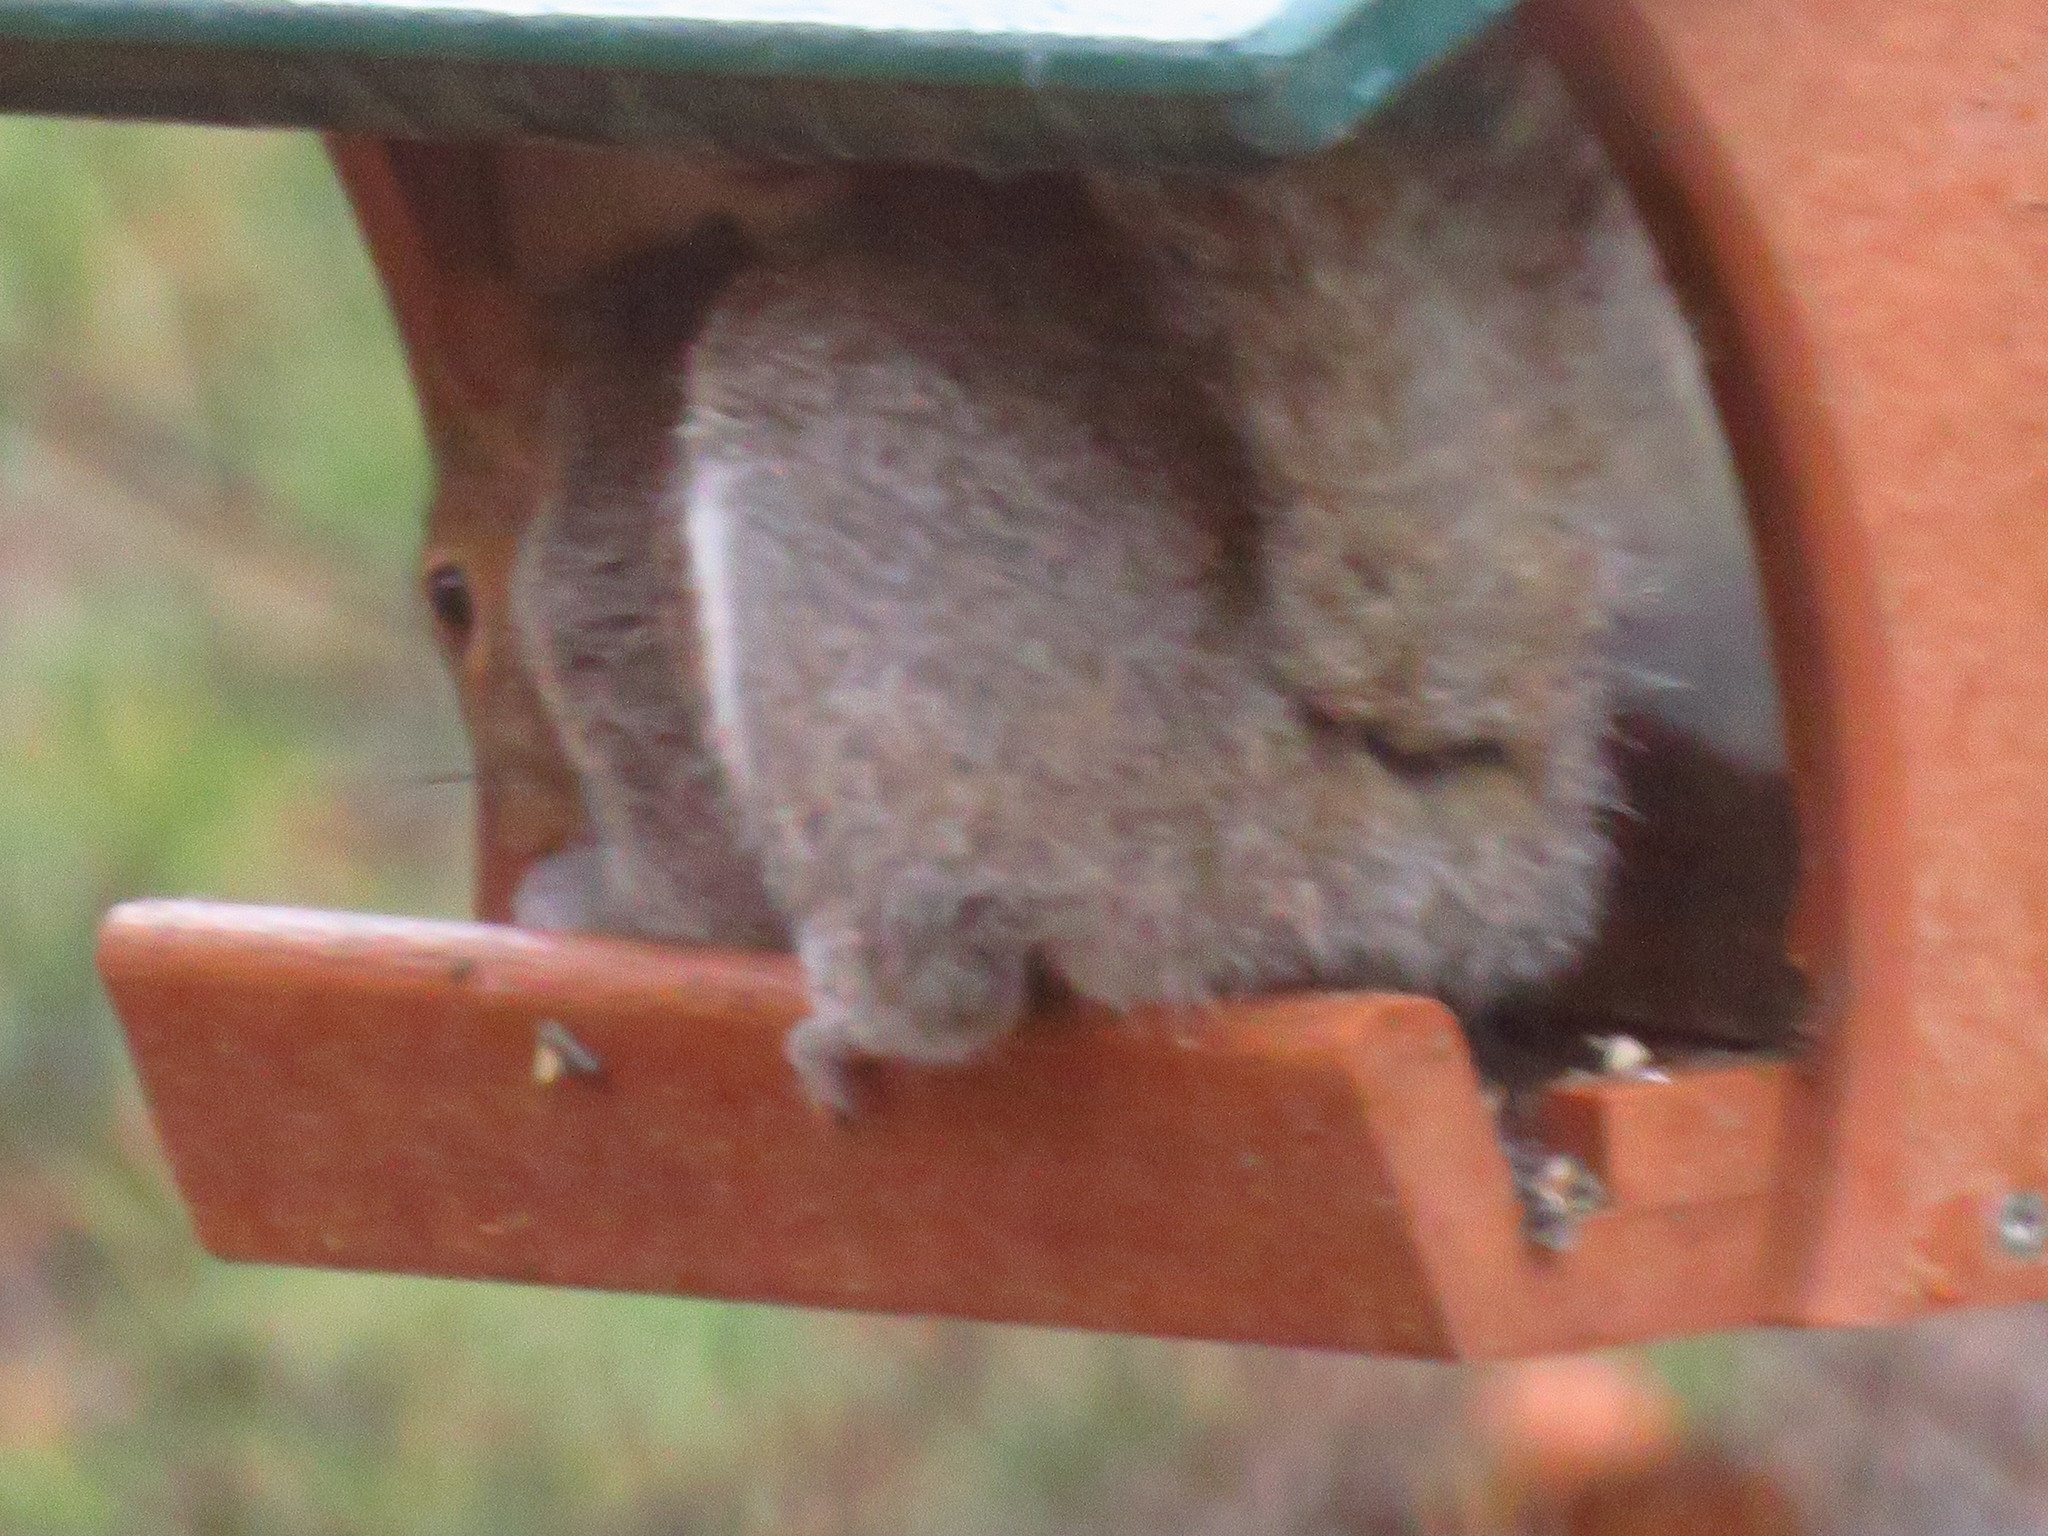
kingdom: Animalia
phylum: Chordata
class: Mammalia
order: Rodentia
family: Sciuridae
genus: Sciurus
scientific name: Sciurus carolinensis
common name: Eastern gray squirrel
